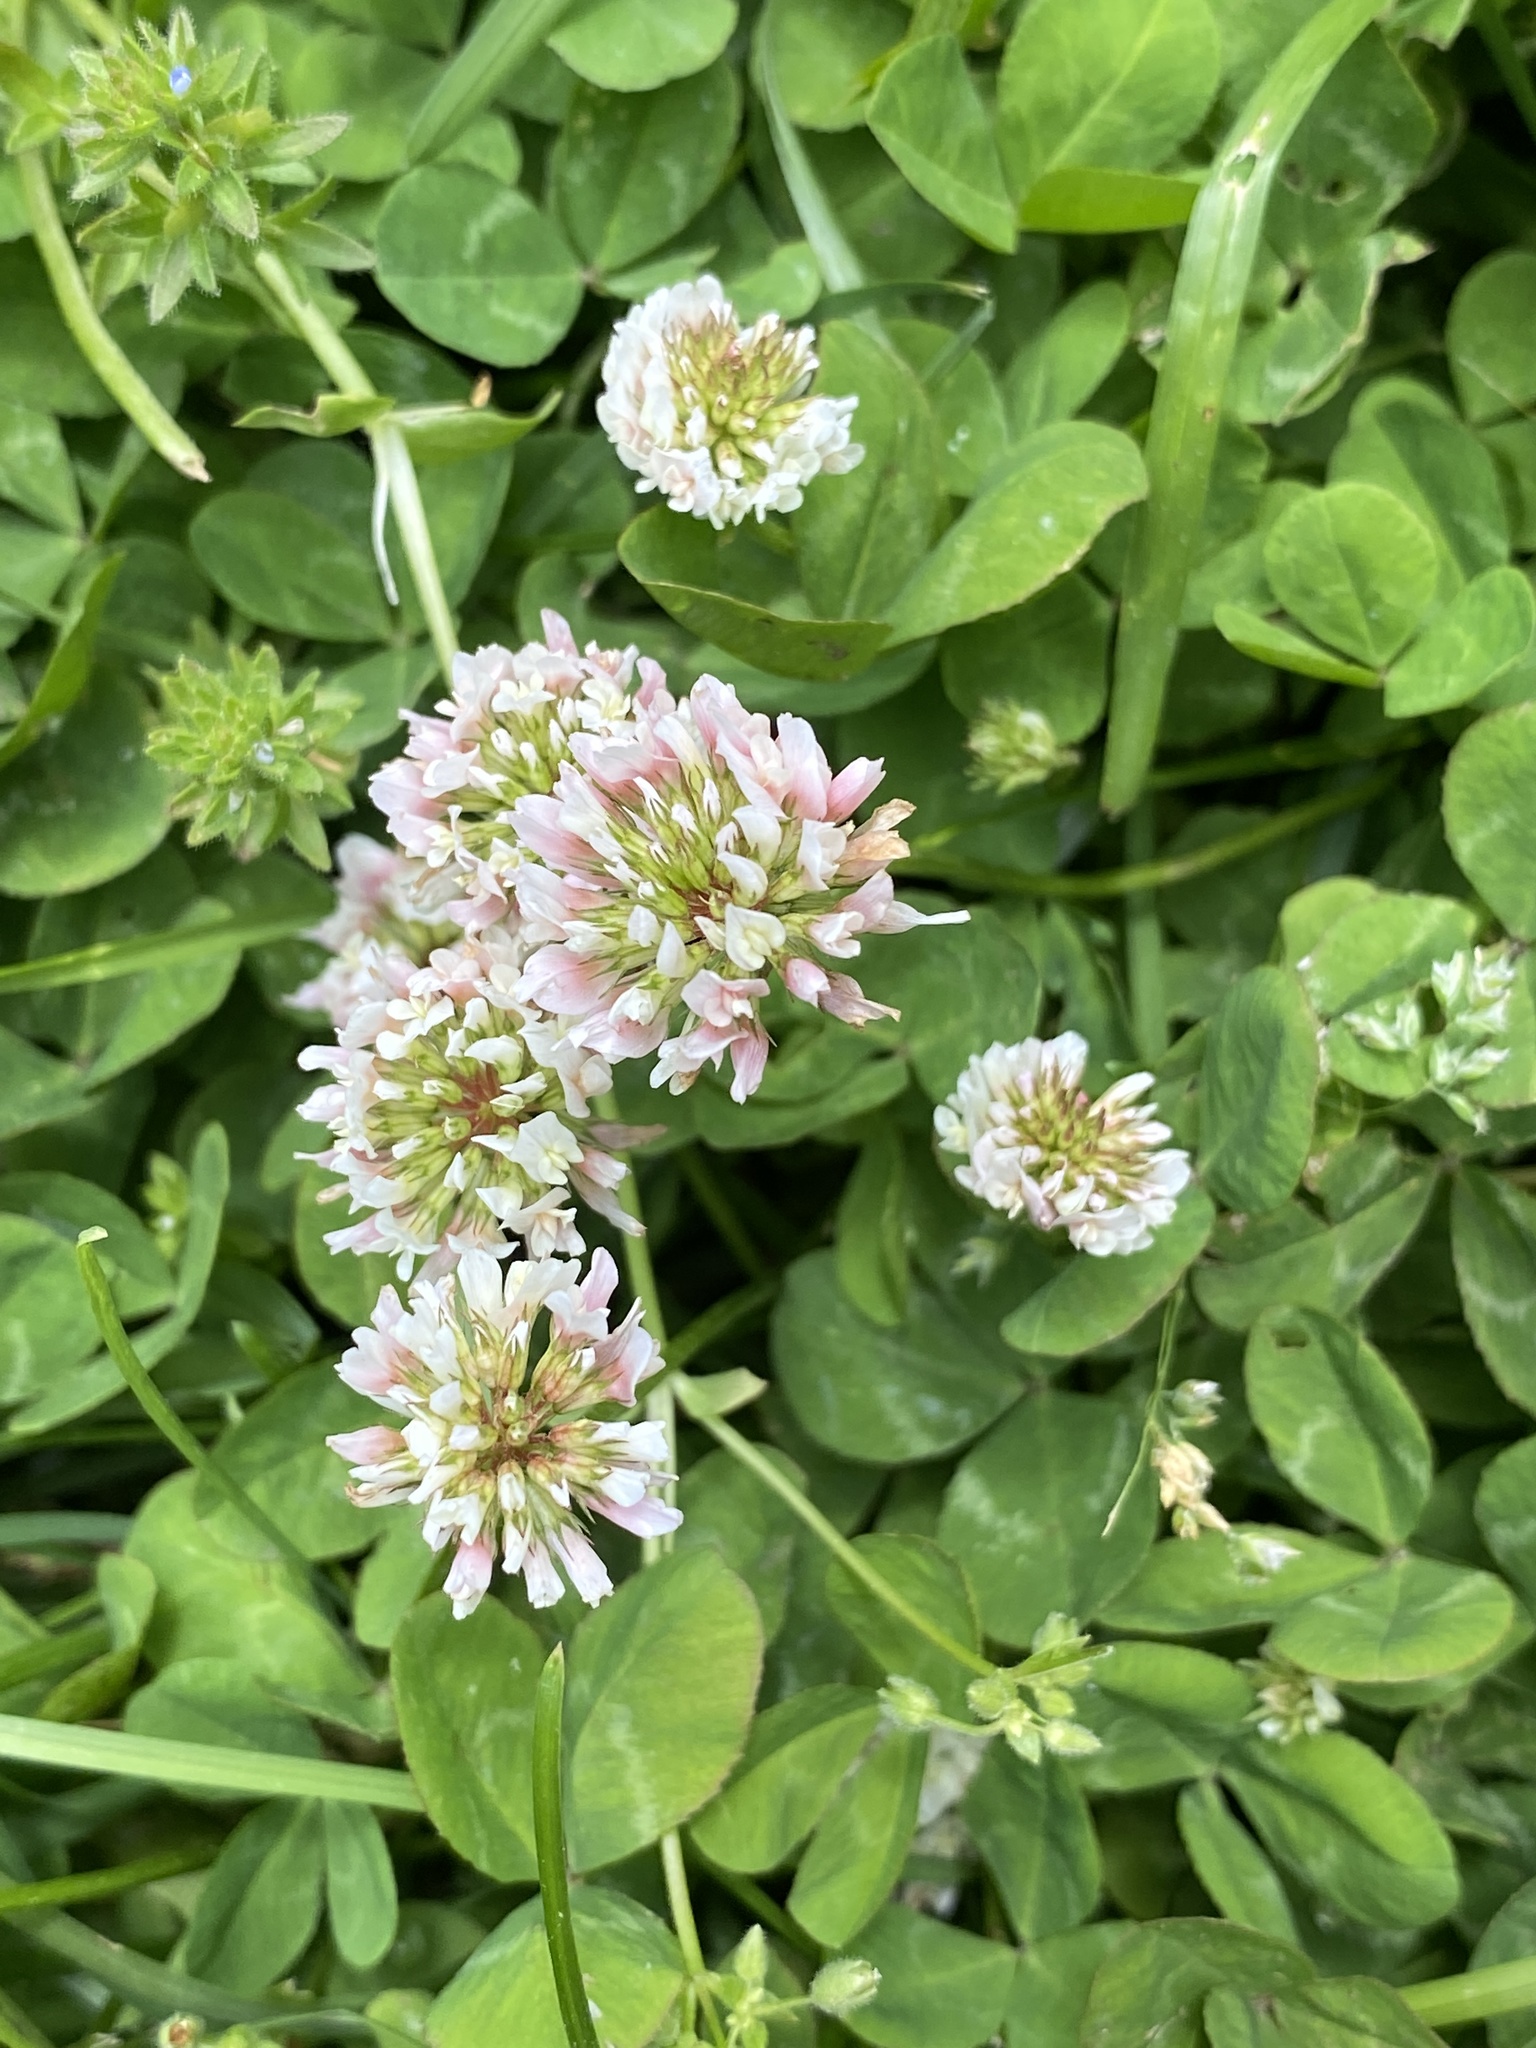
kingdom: Plantae
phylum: Tracheophyta
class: Magnoliopsida
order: Fabales
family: Fabaceae
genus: Trifolium
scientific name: Trifolium repens
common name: White clover
